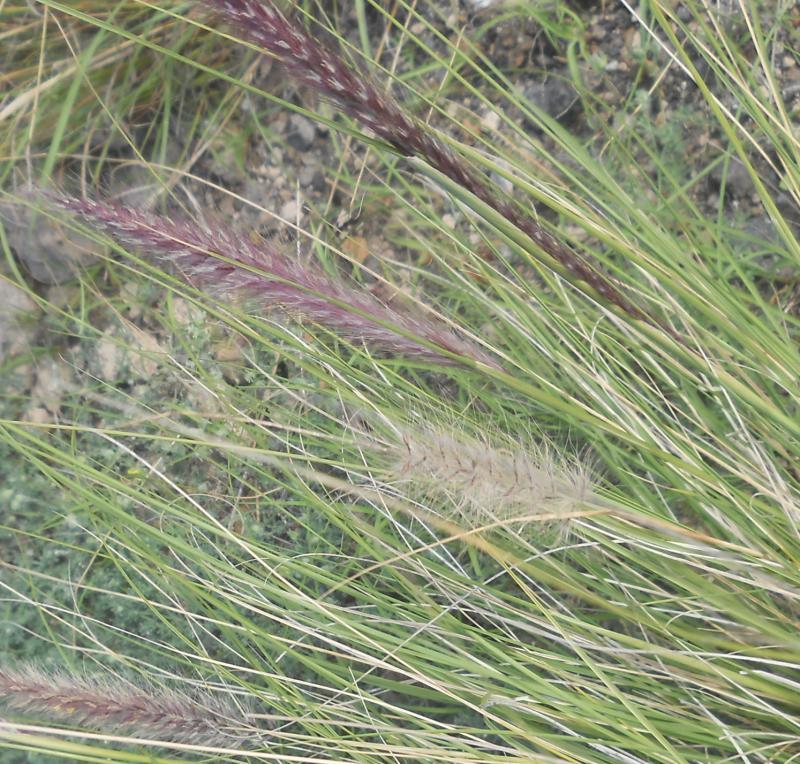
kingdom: Plantae
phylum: Tracheophyta
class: Liliopsida
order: Poales
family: Poaceae
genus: Cenchrus
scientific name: Cenchrus setaceus
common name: Crimson fountaingrass
